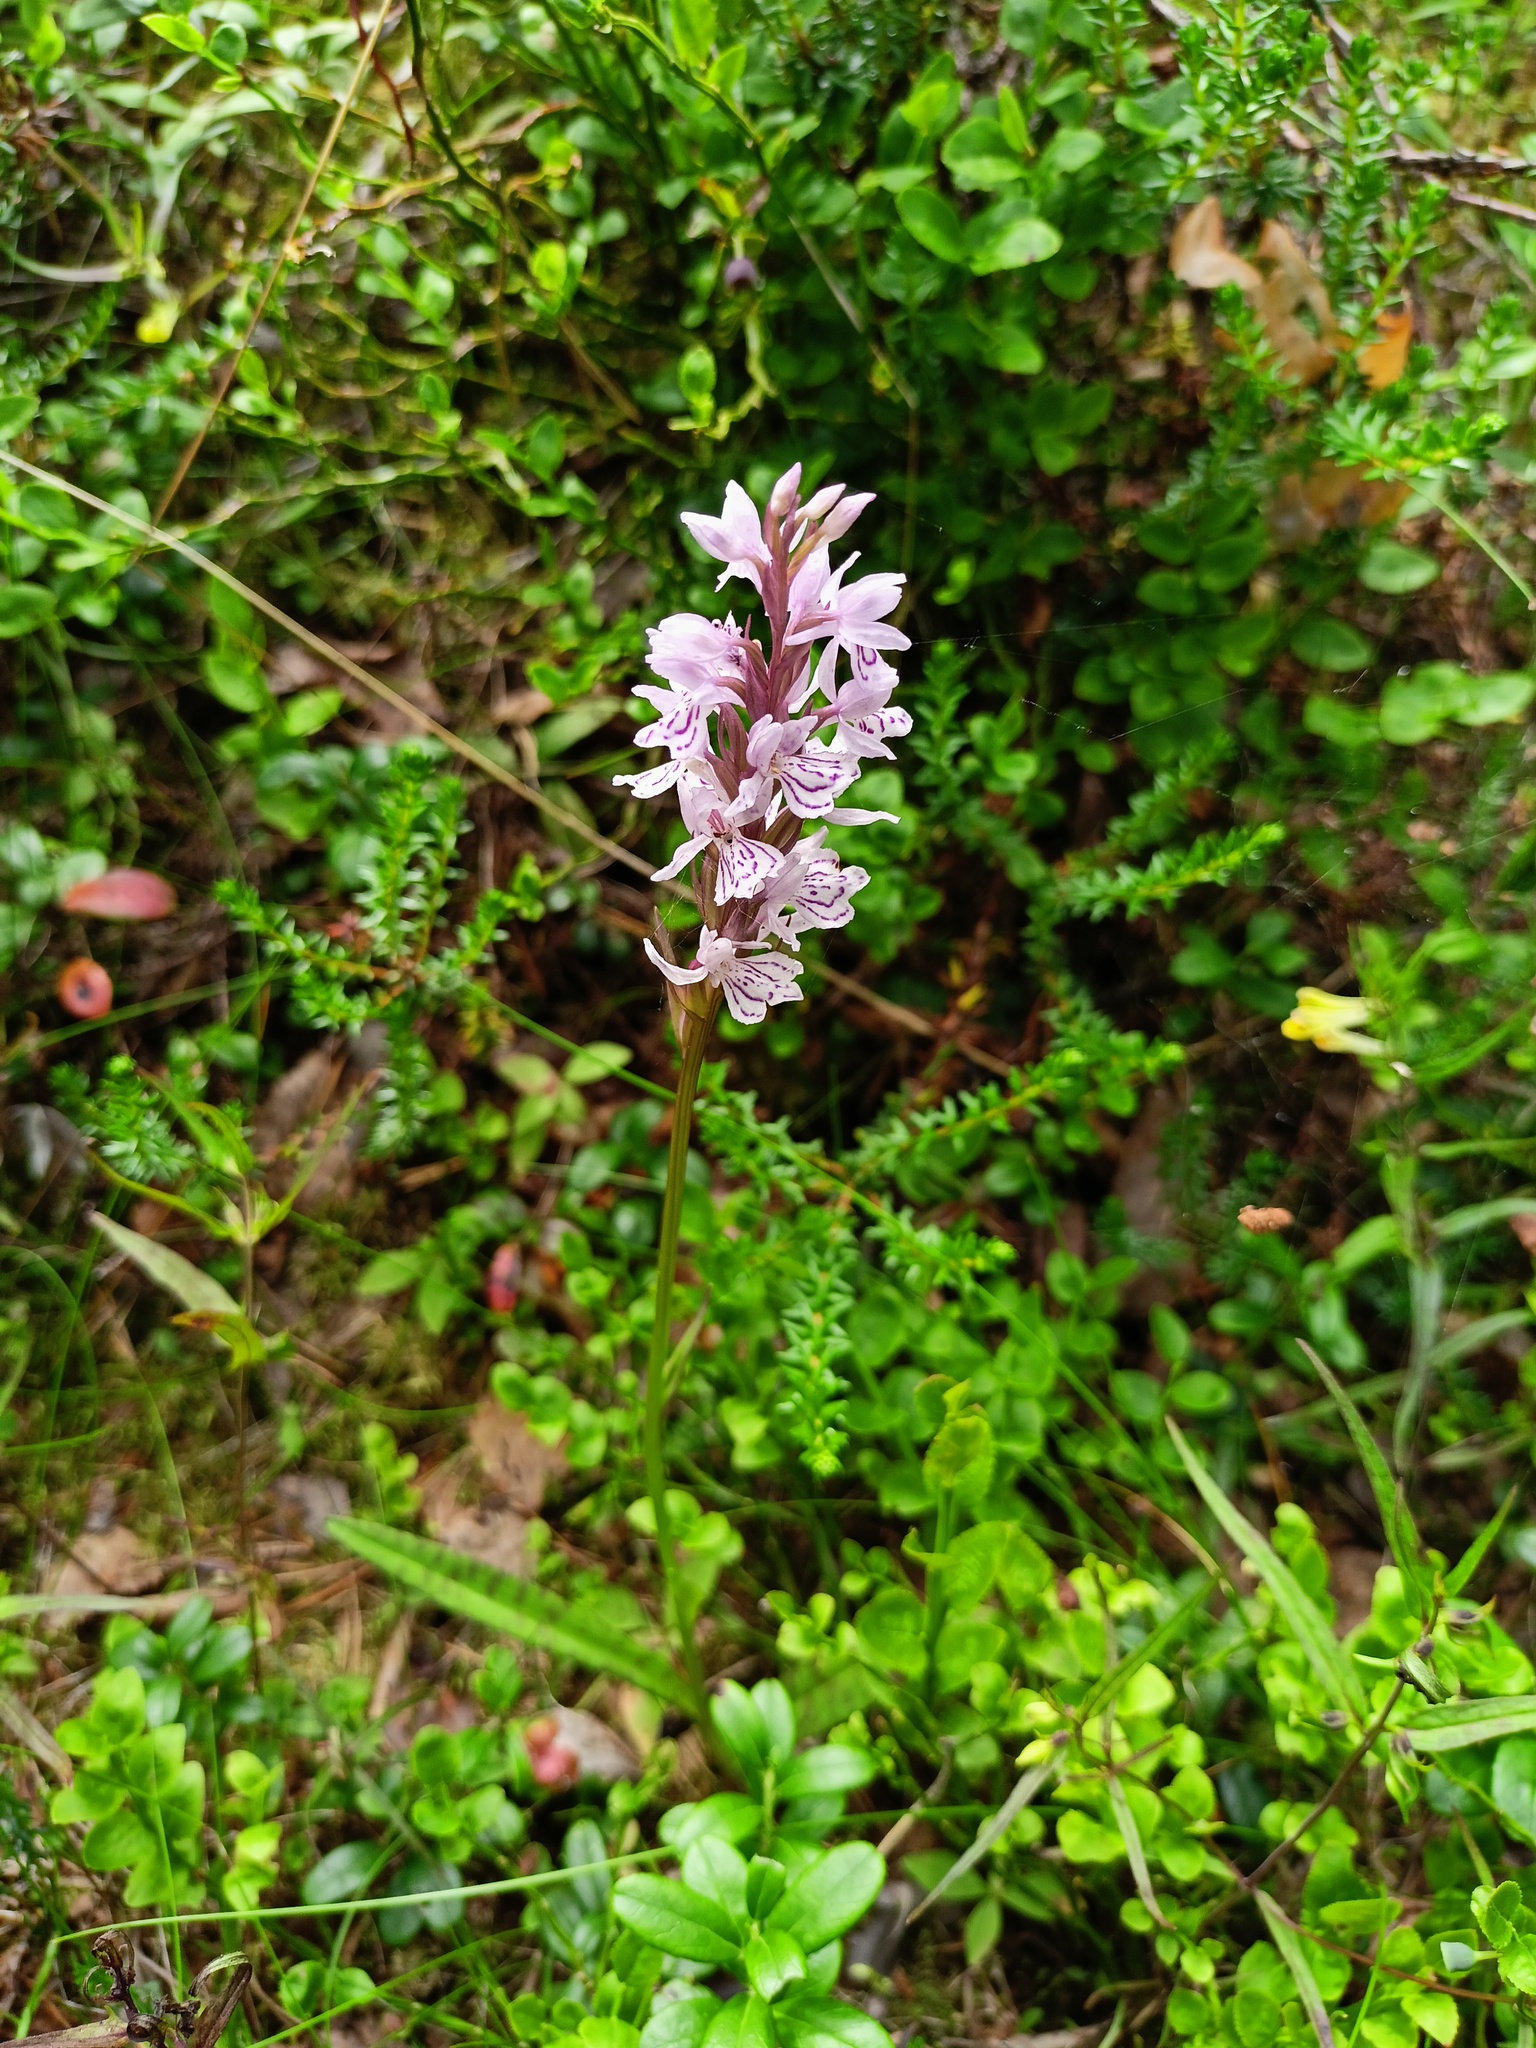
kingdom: Plantae
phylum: Tracheophyta
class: Liliopsida
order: Asparagales
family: Orchidaceae
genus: Dactylorhiza
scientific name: Dactylorhiza maculata
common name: Heath spotted-orchid
